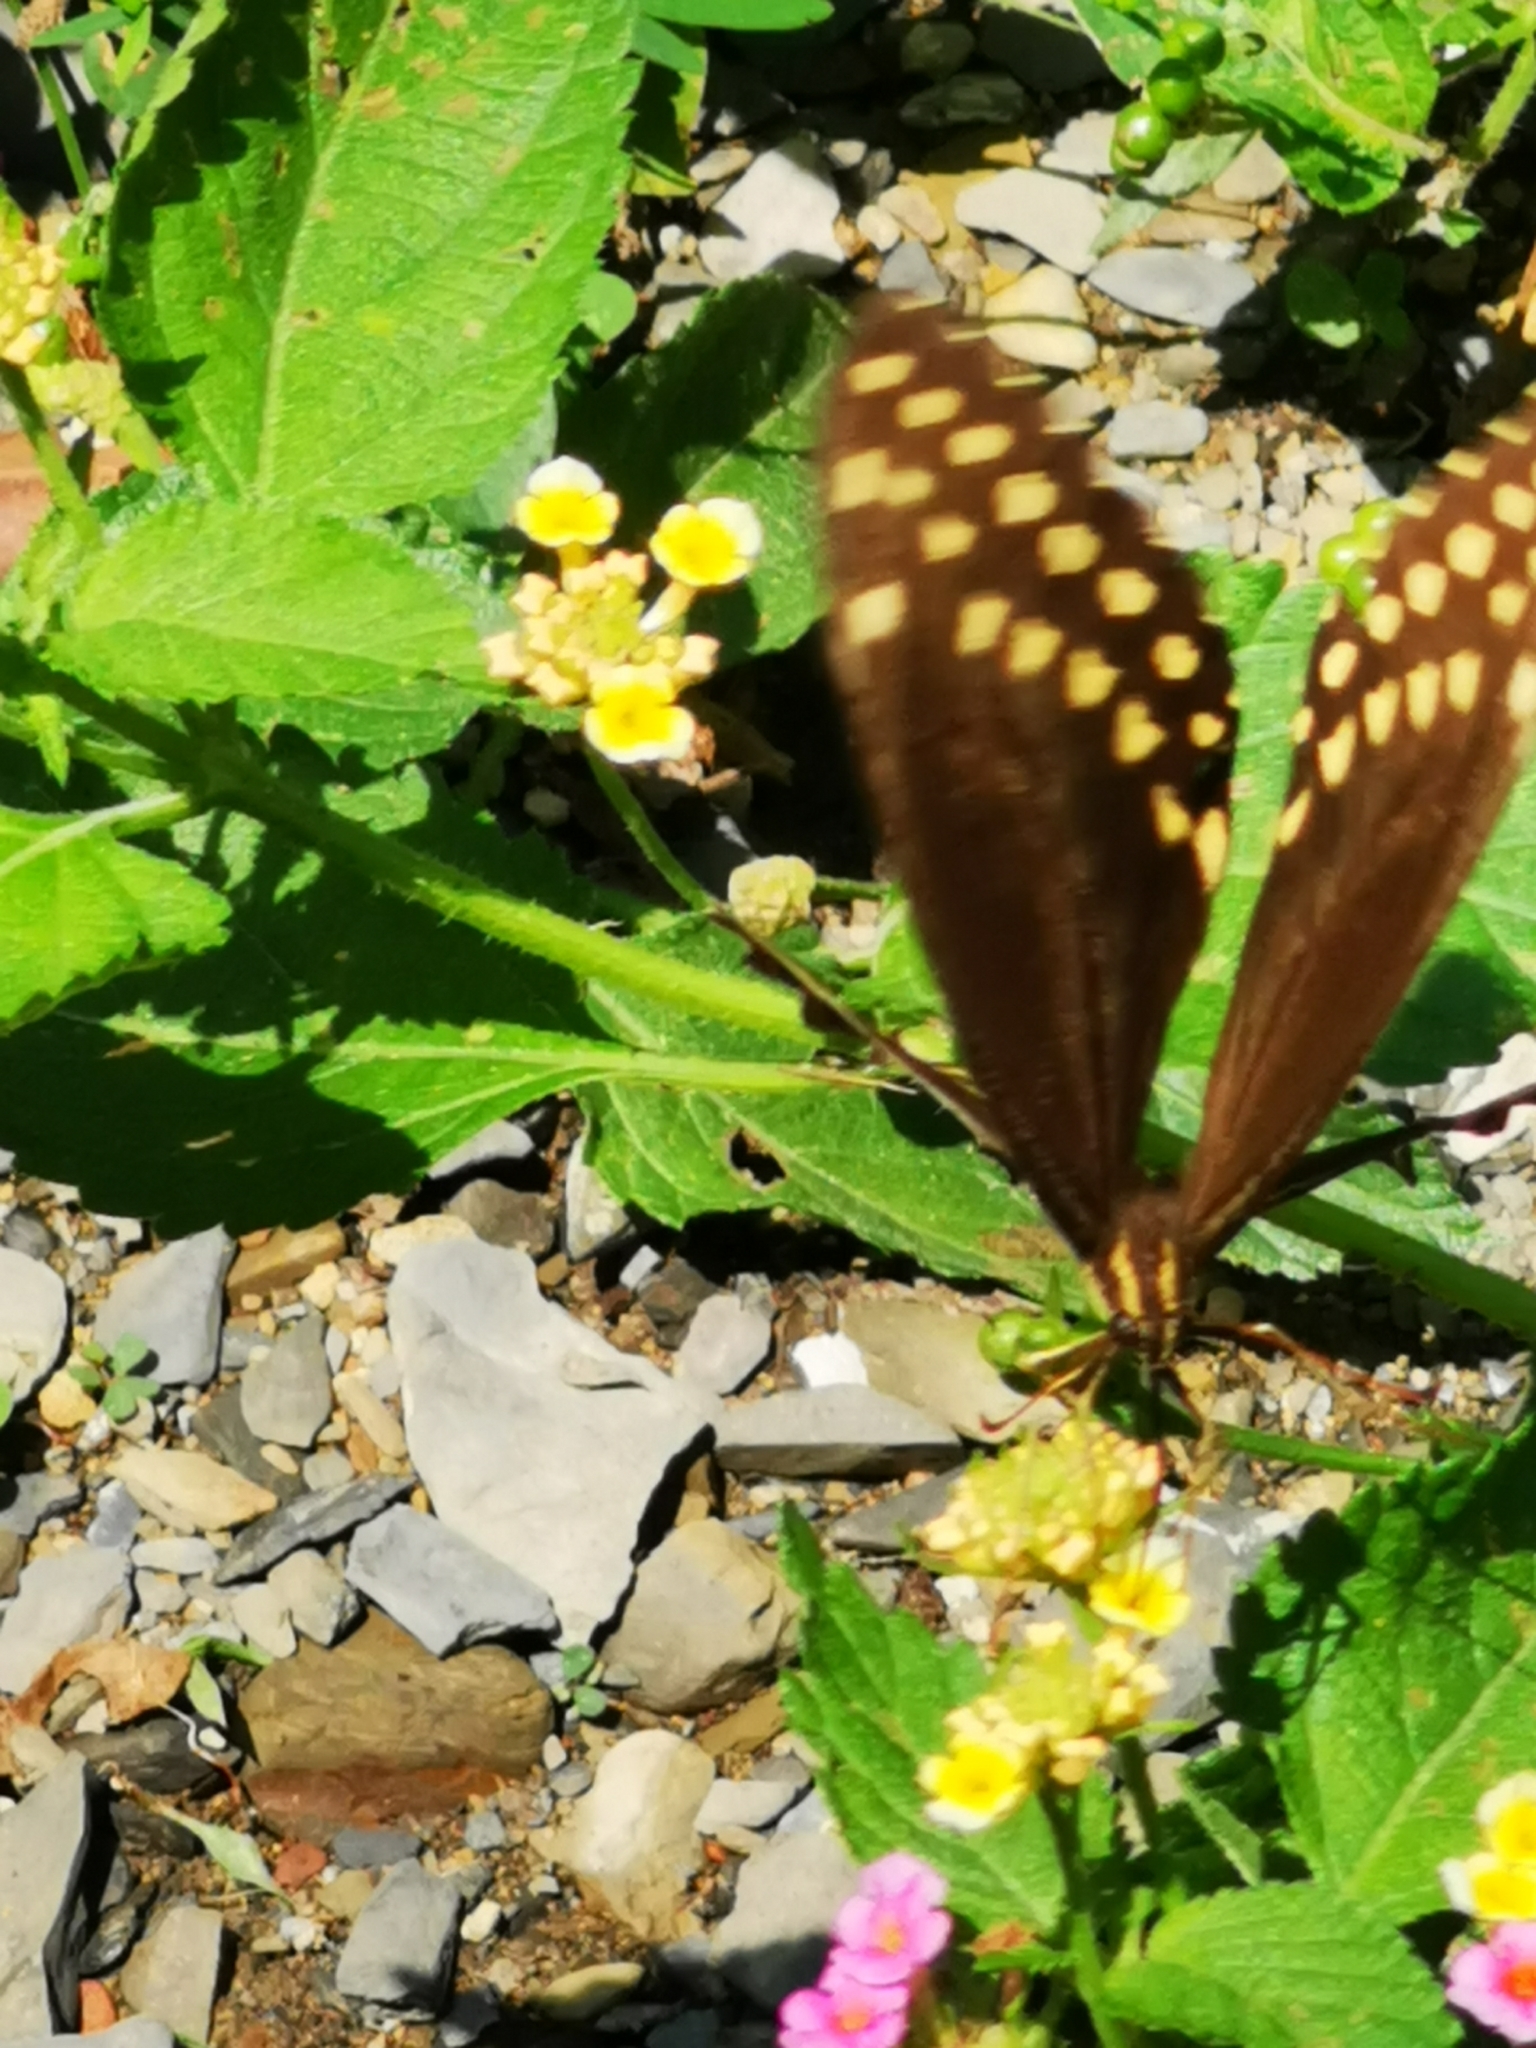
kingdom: Animalia
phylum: Arthropoda
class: Insecta
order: Lepidoptera
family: Papilionidae
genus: Papilio
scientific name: Papilio palamedes
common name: Palamedes swallowtail
